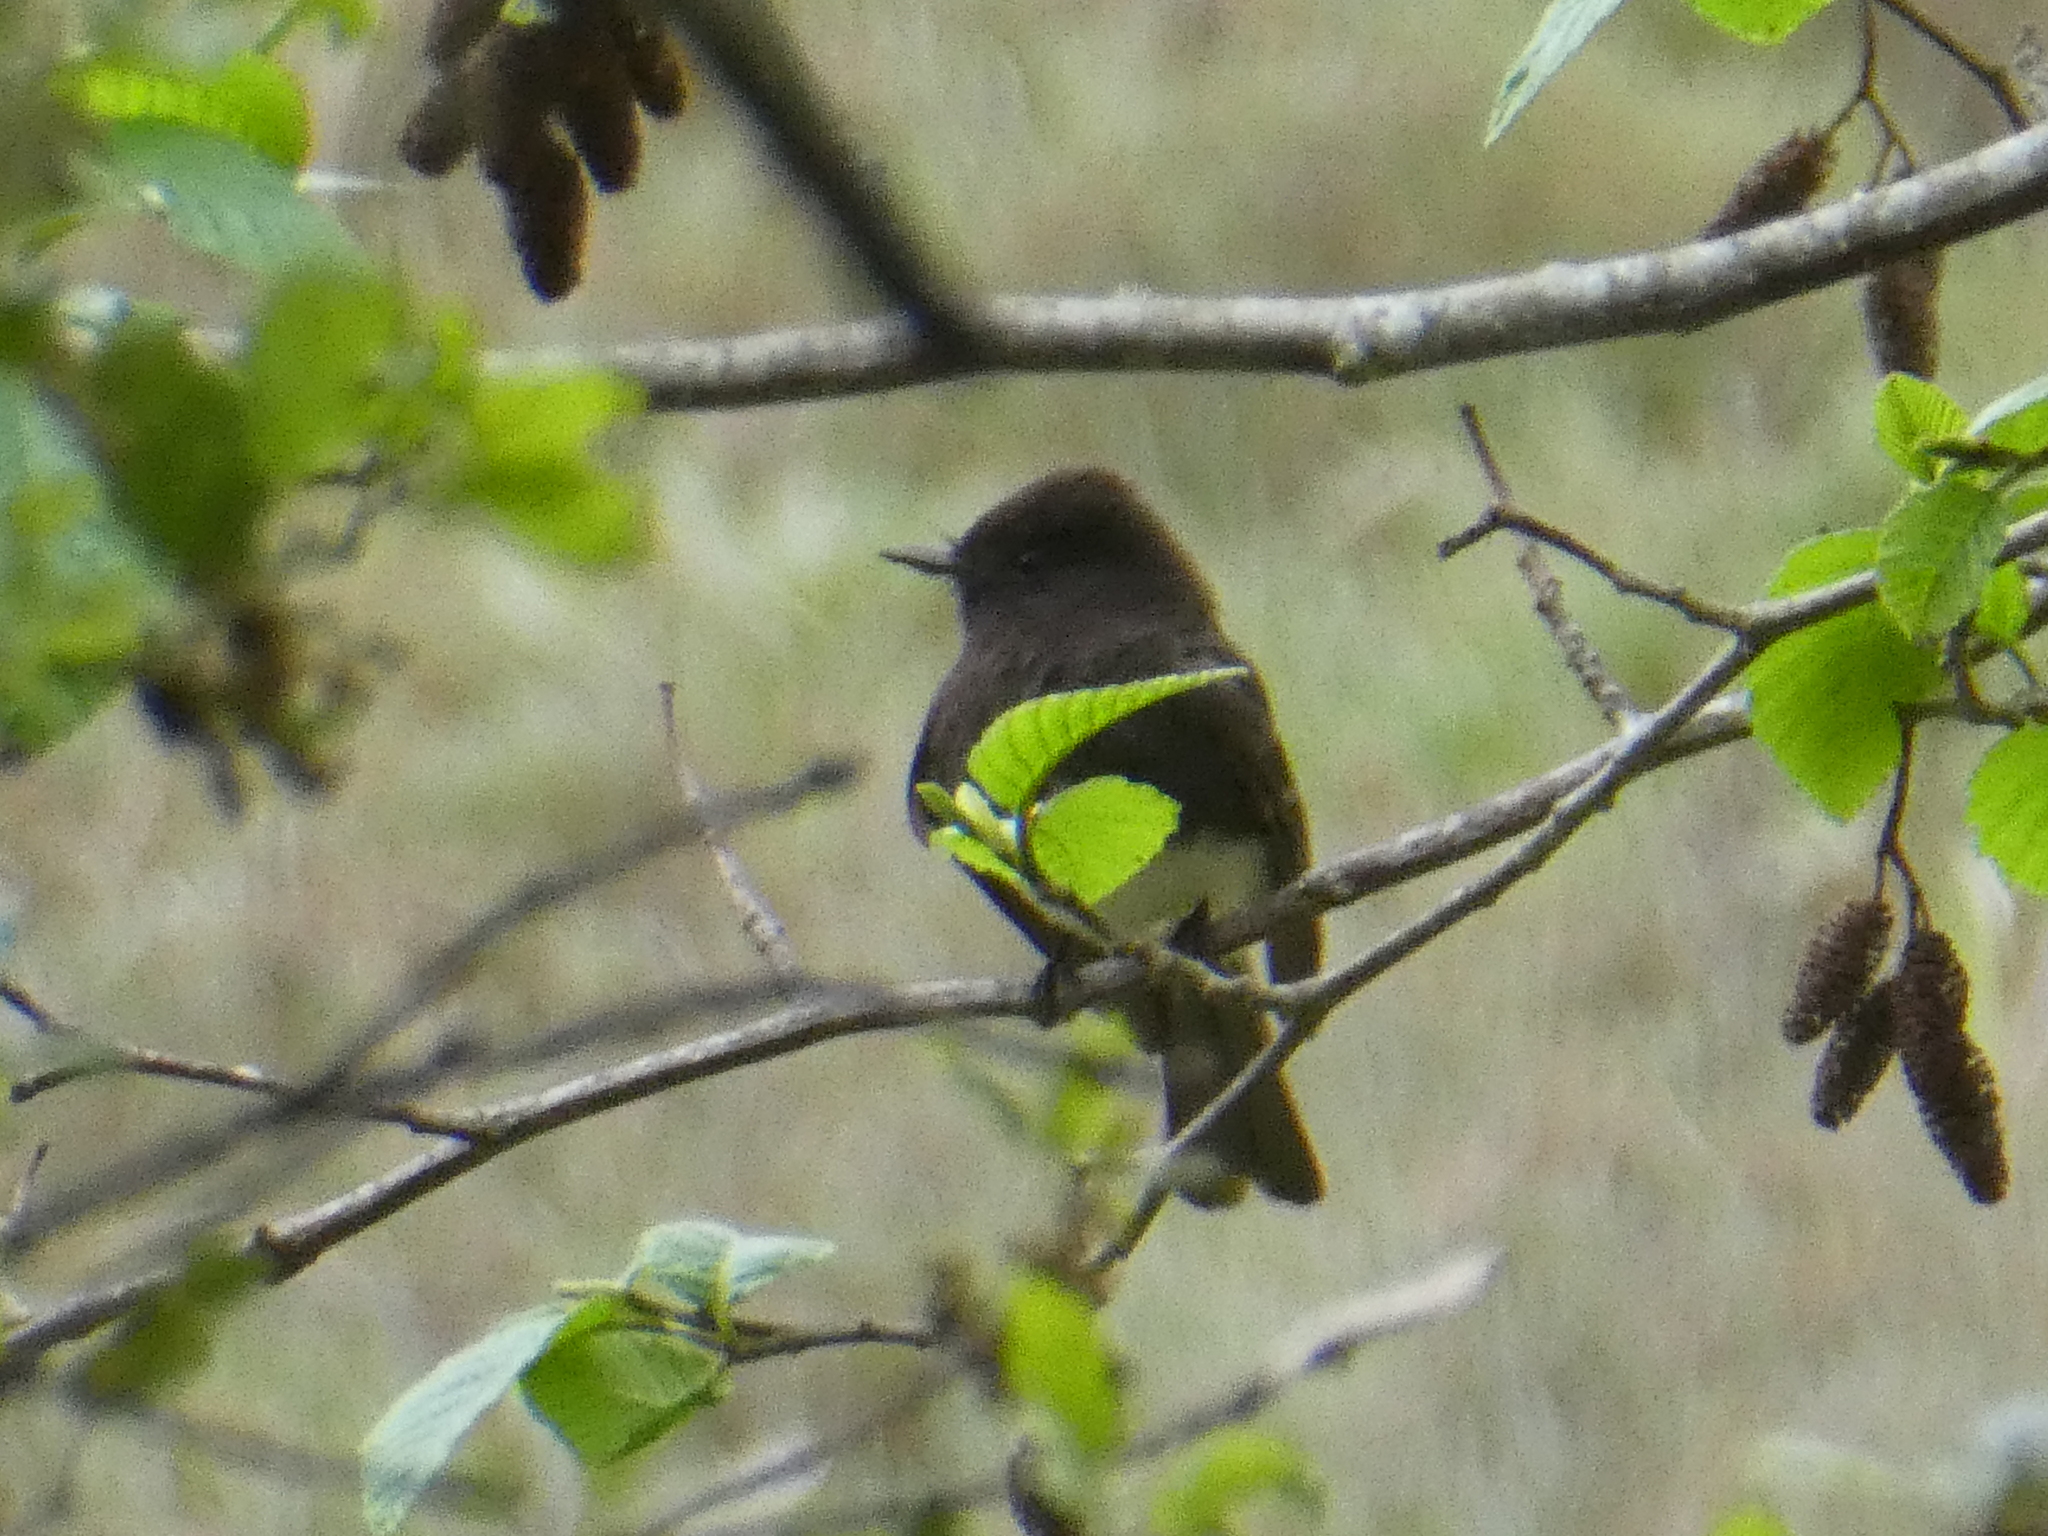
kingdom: Animalia
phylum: Chordata
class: Aves
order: Passeriformes
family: Tyrannidae
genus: Sayornis
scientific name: Sayornis nigricans
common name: Black phoebe
